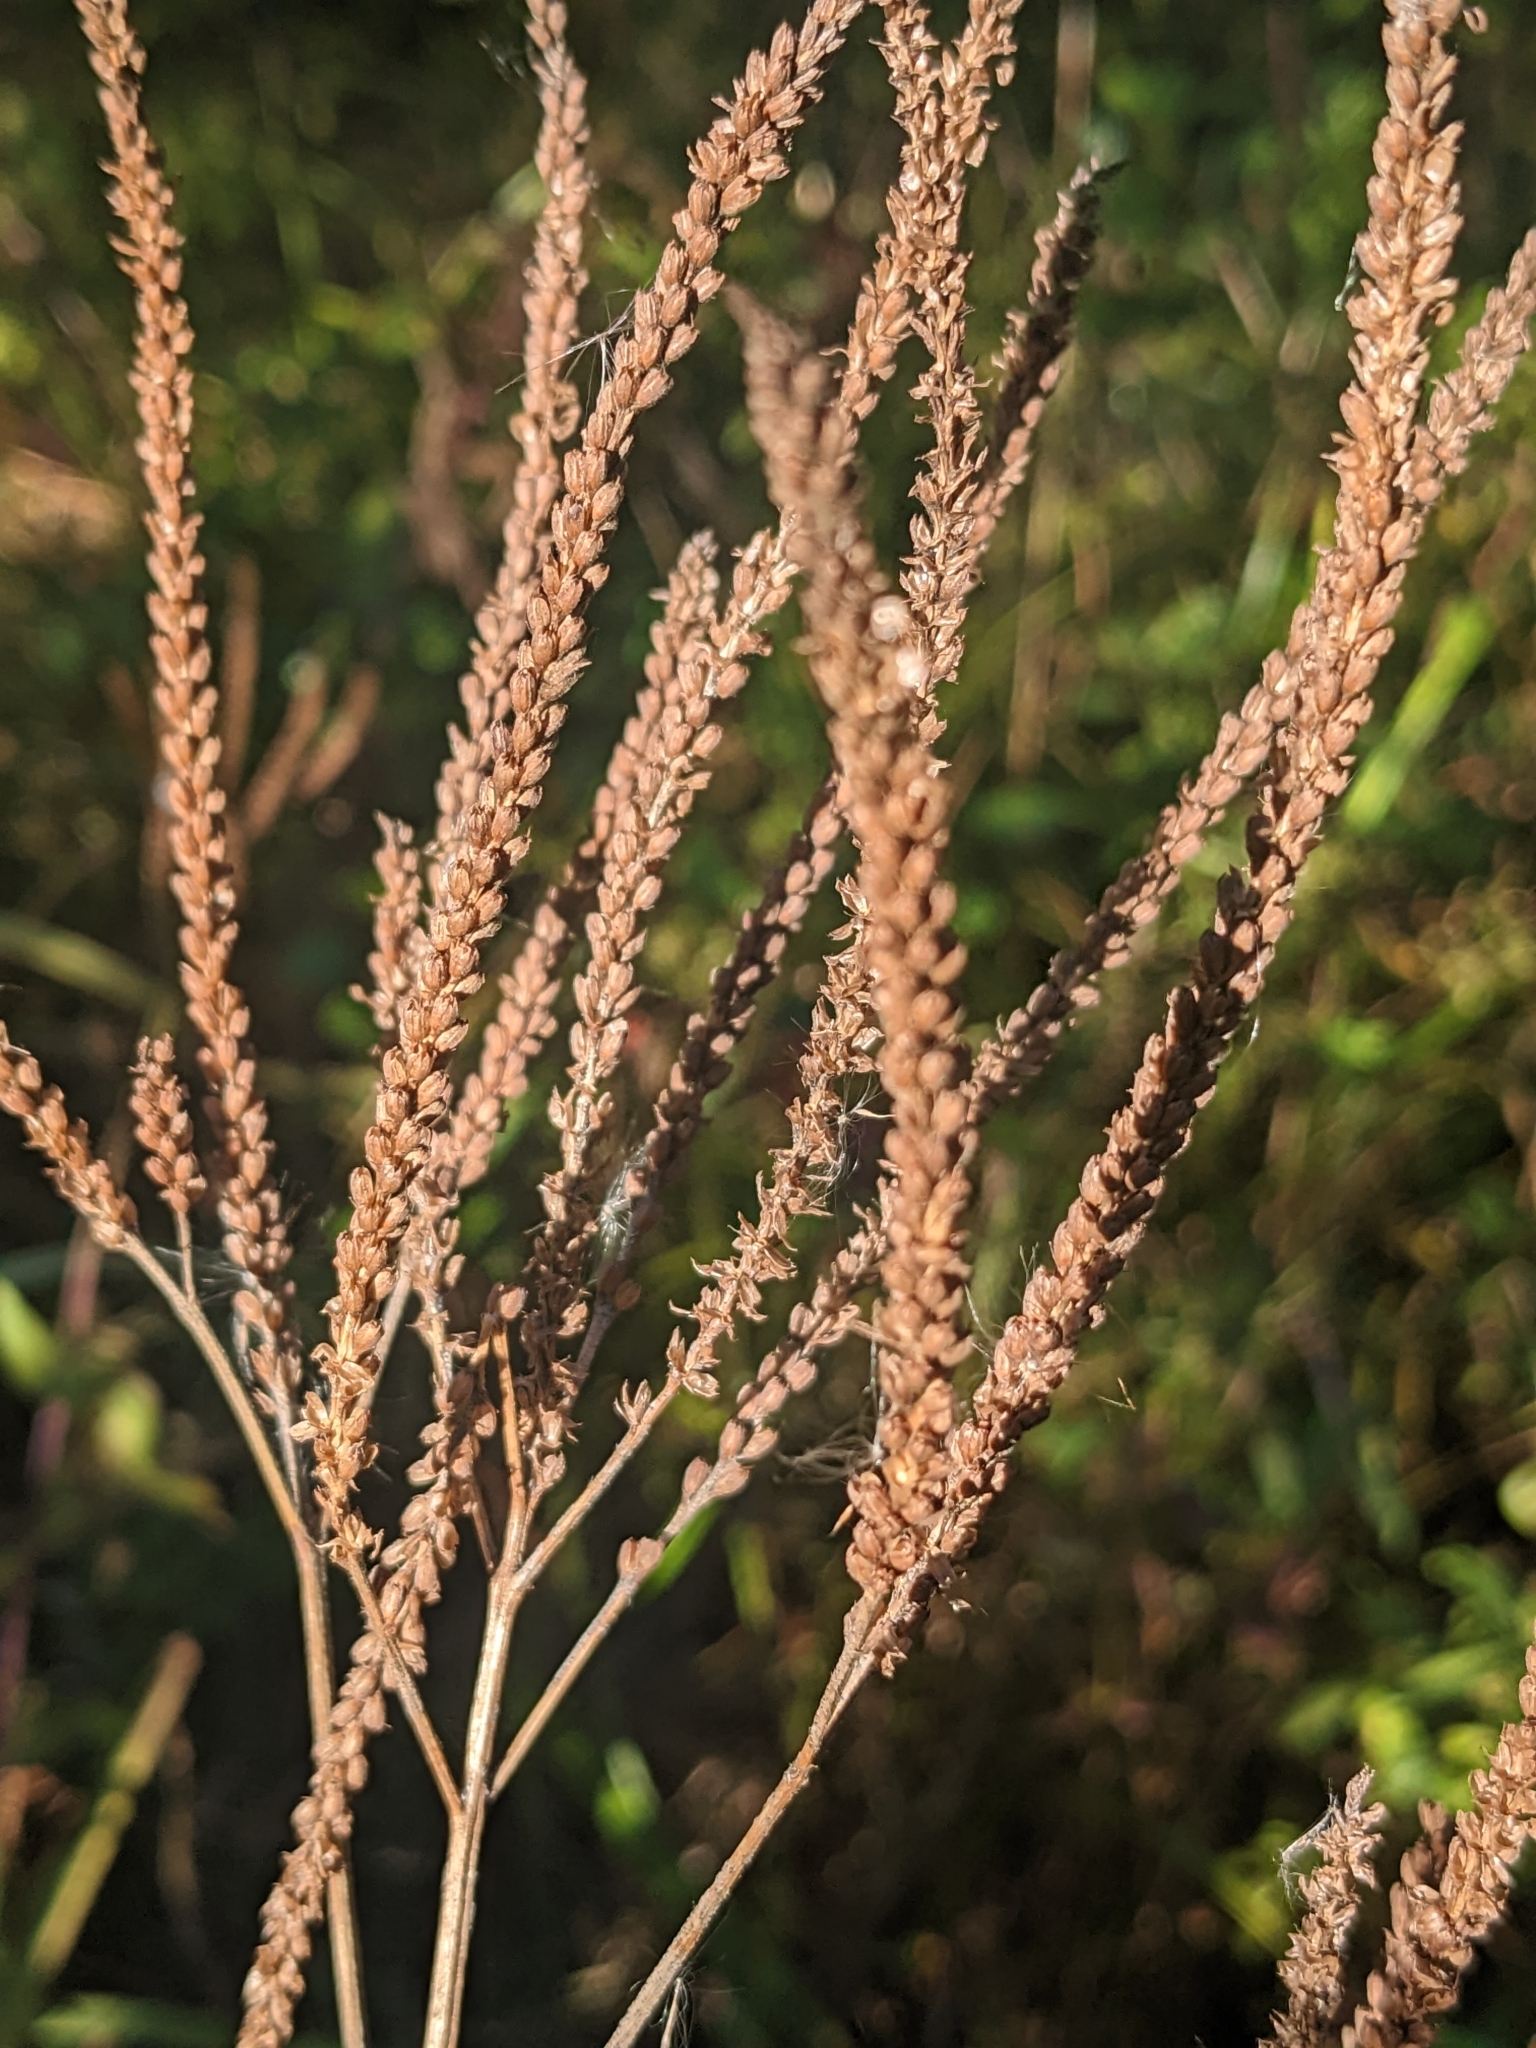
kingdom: Plantae
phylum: Tracheophyta
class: Magnoliopsida
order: Lamiales
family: Verbenaceae
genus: Verbena
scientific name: Verbena hastata
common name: American blue vervain
